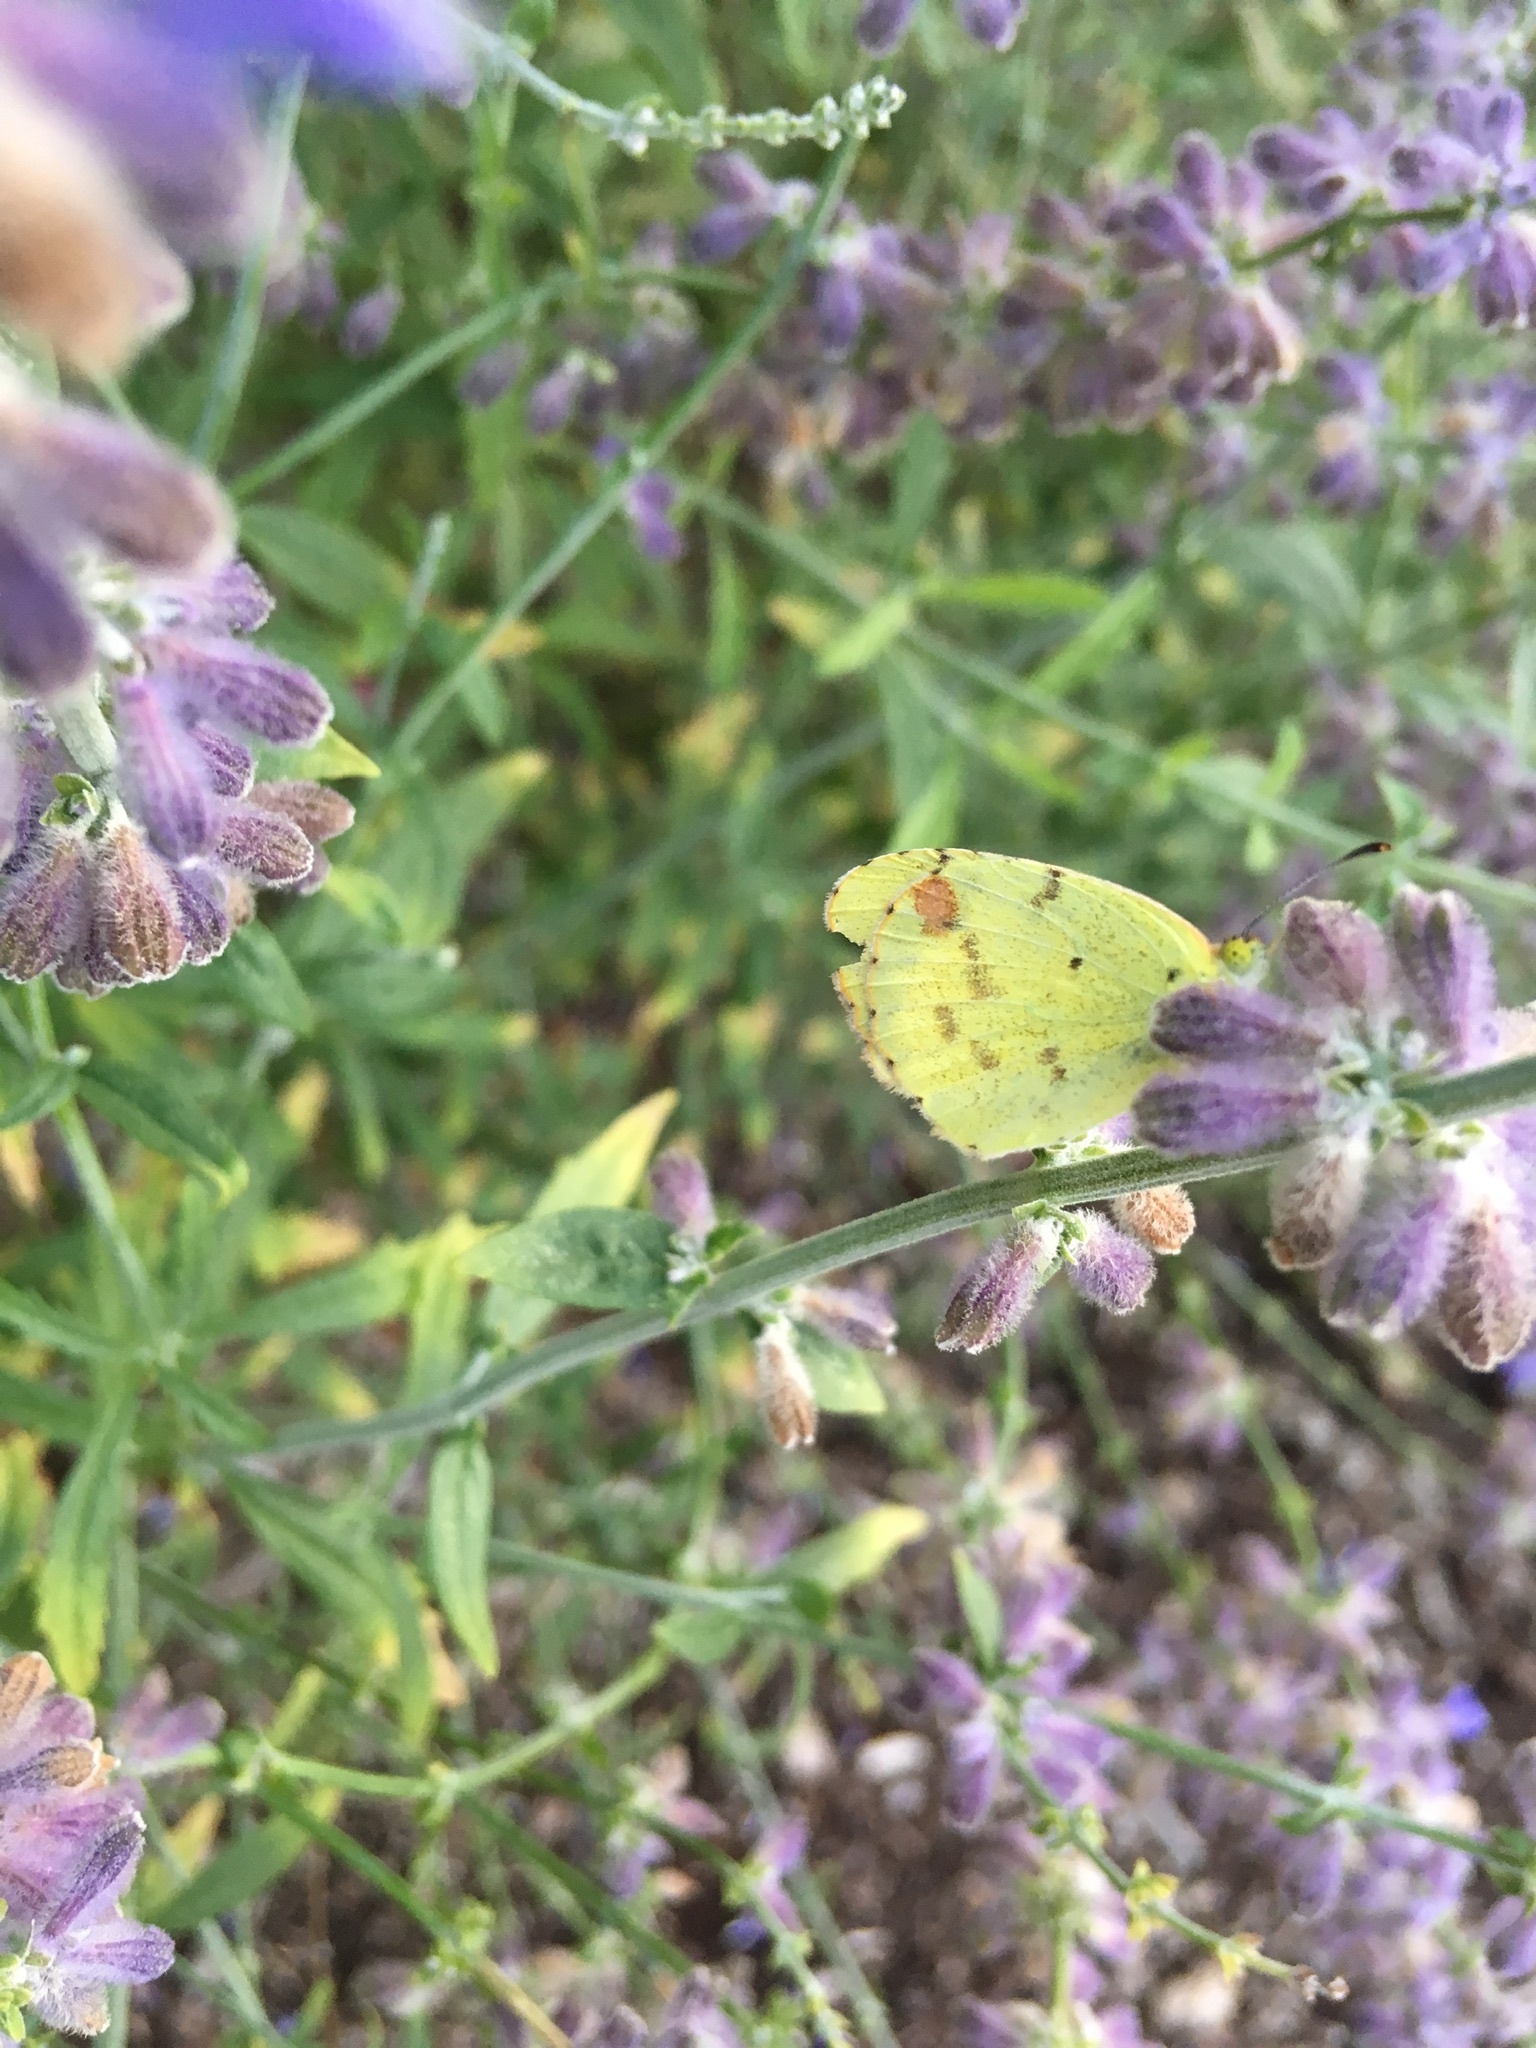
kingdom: Animalia
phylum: Arthropoda
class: Insecta
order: Lepidoptera
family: Pieridae
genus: Pyrisitia
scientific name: Pyrisitia lisa
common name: Little yellow
